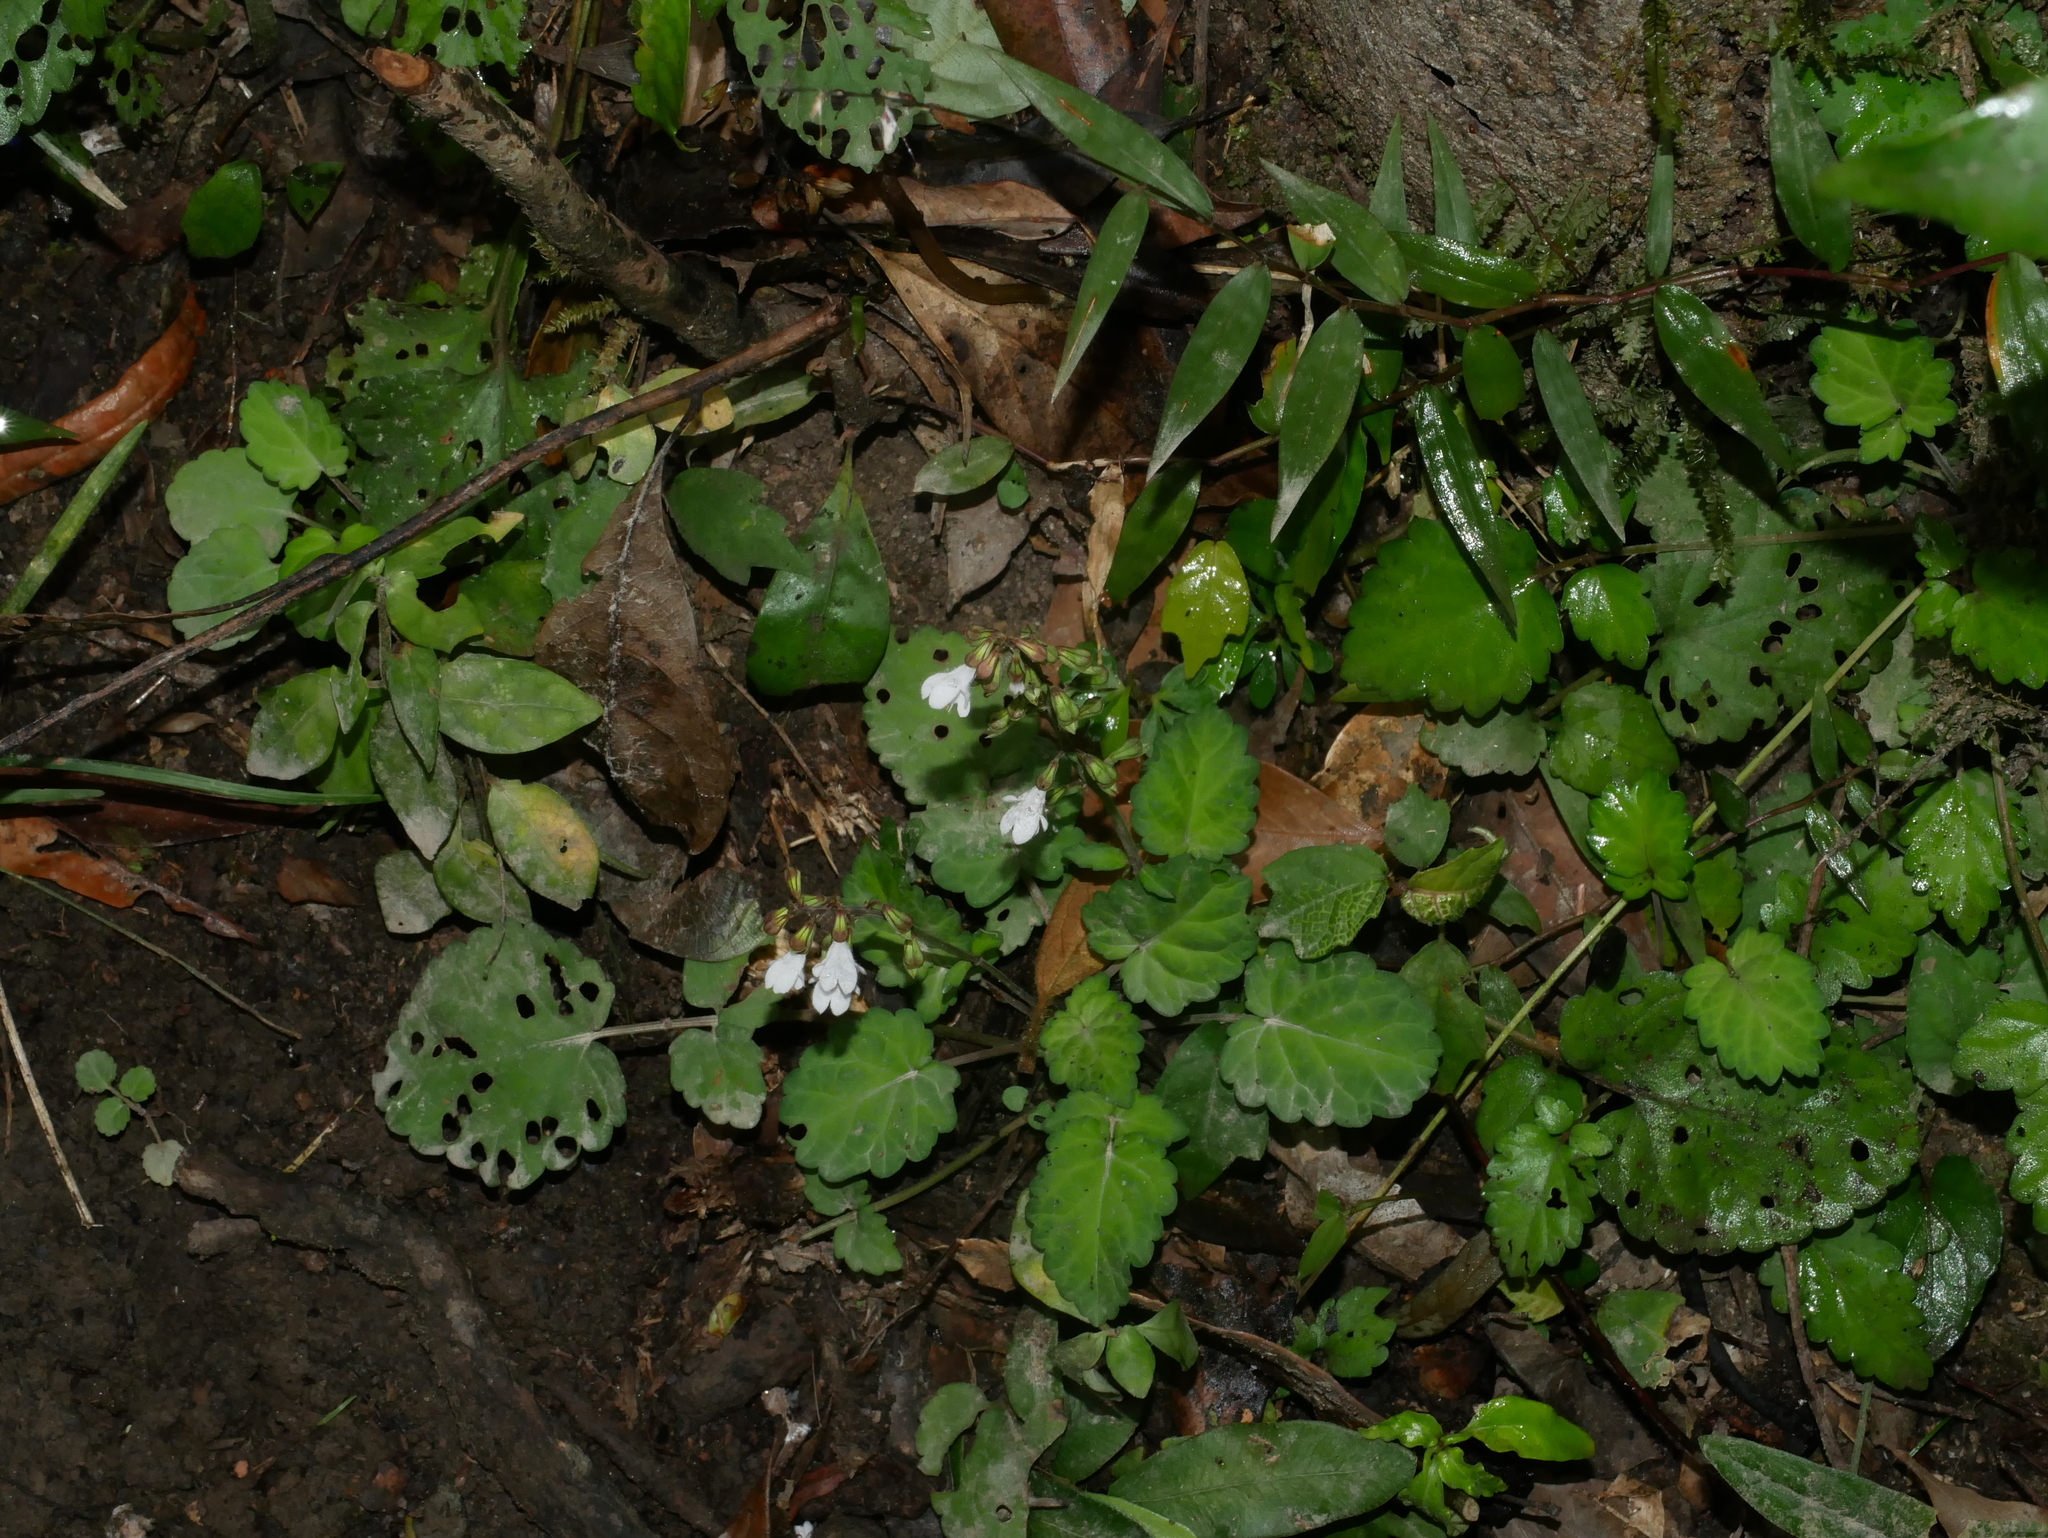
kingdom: Plantae
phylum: Tracheophyta
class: Magnoliopsida
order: Lamiales
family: Lamiaceae
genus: Salvia
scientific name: Salvia hayatae
